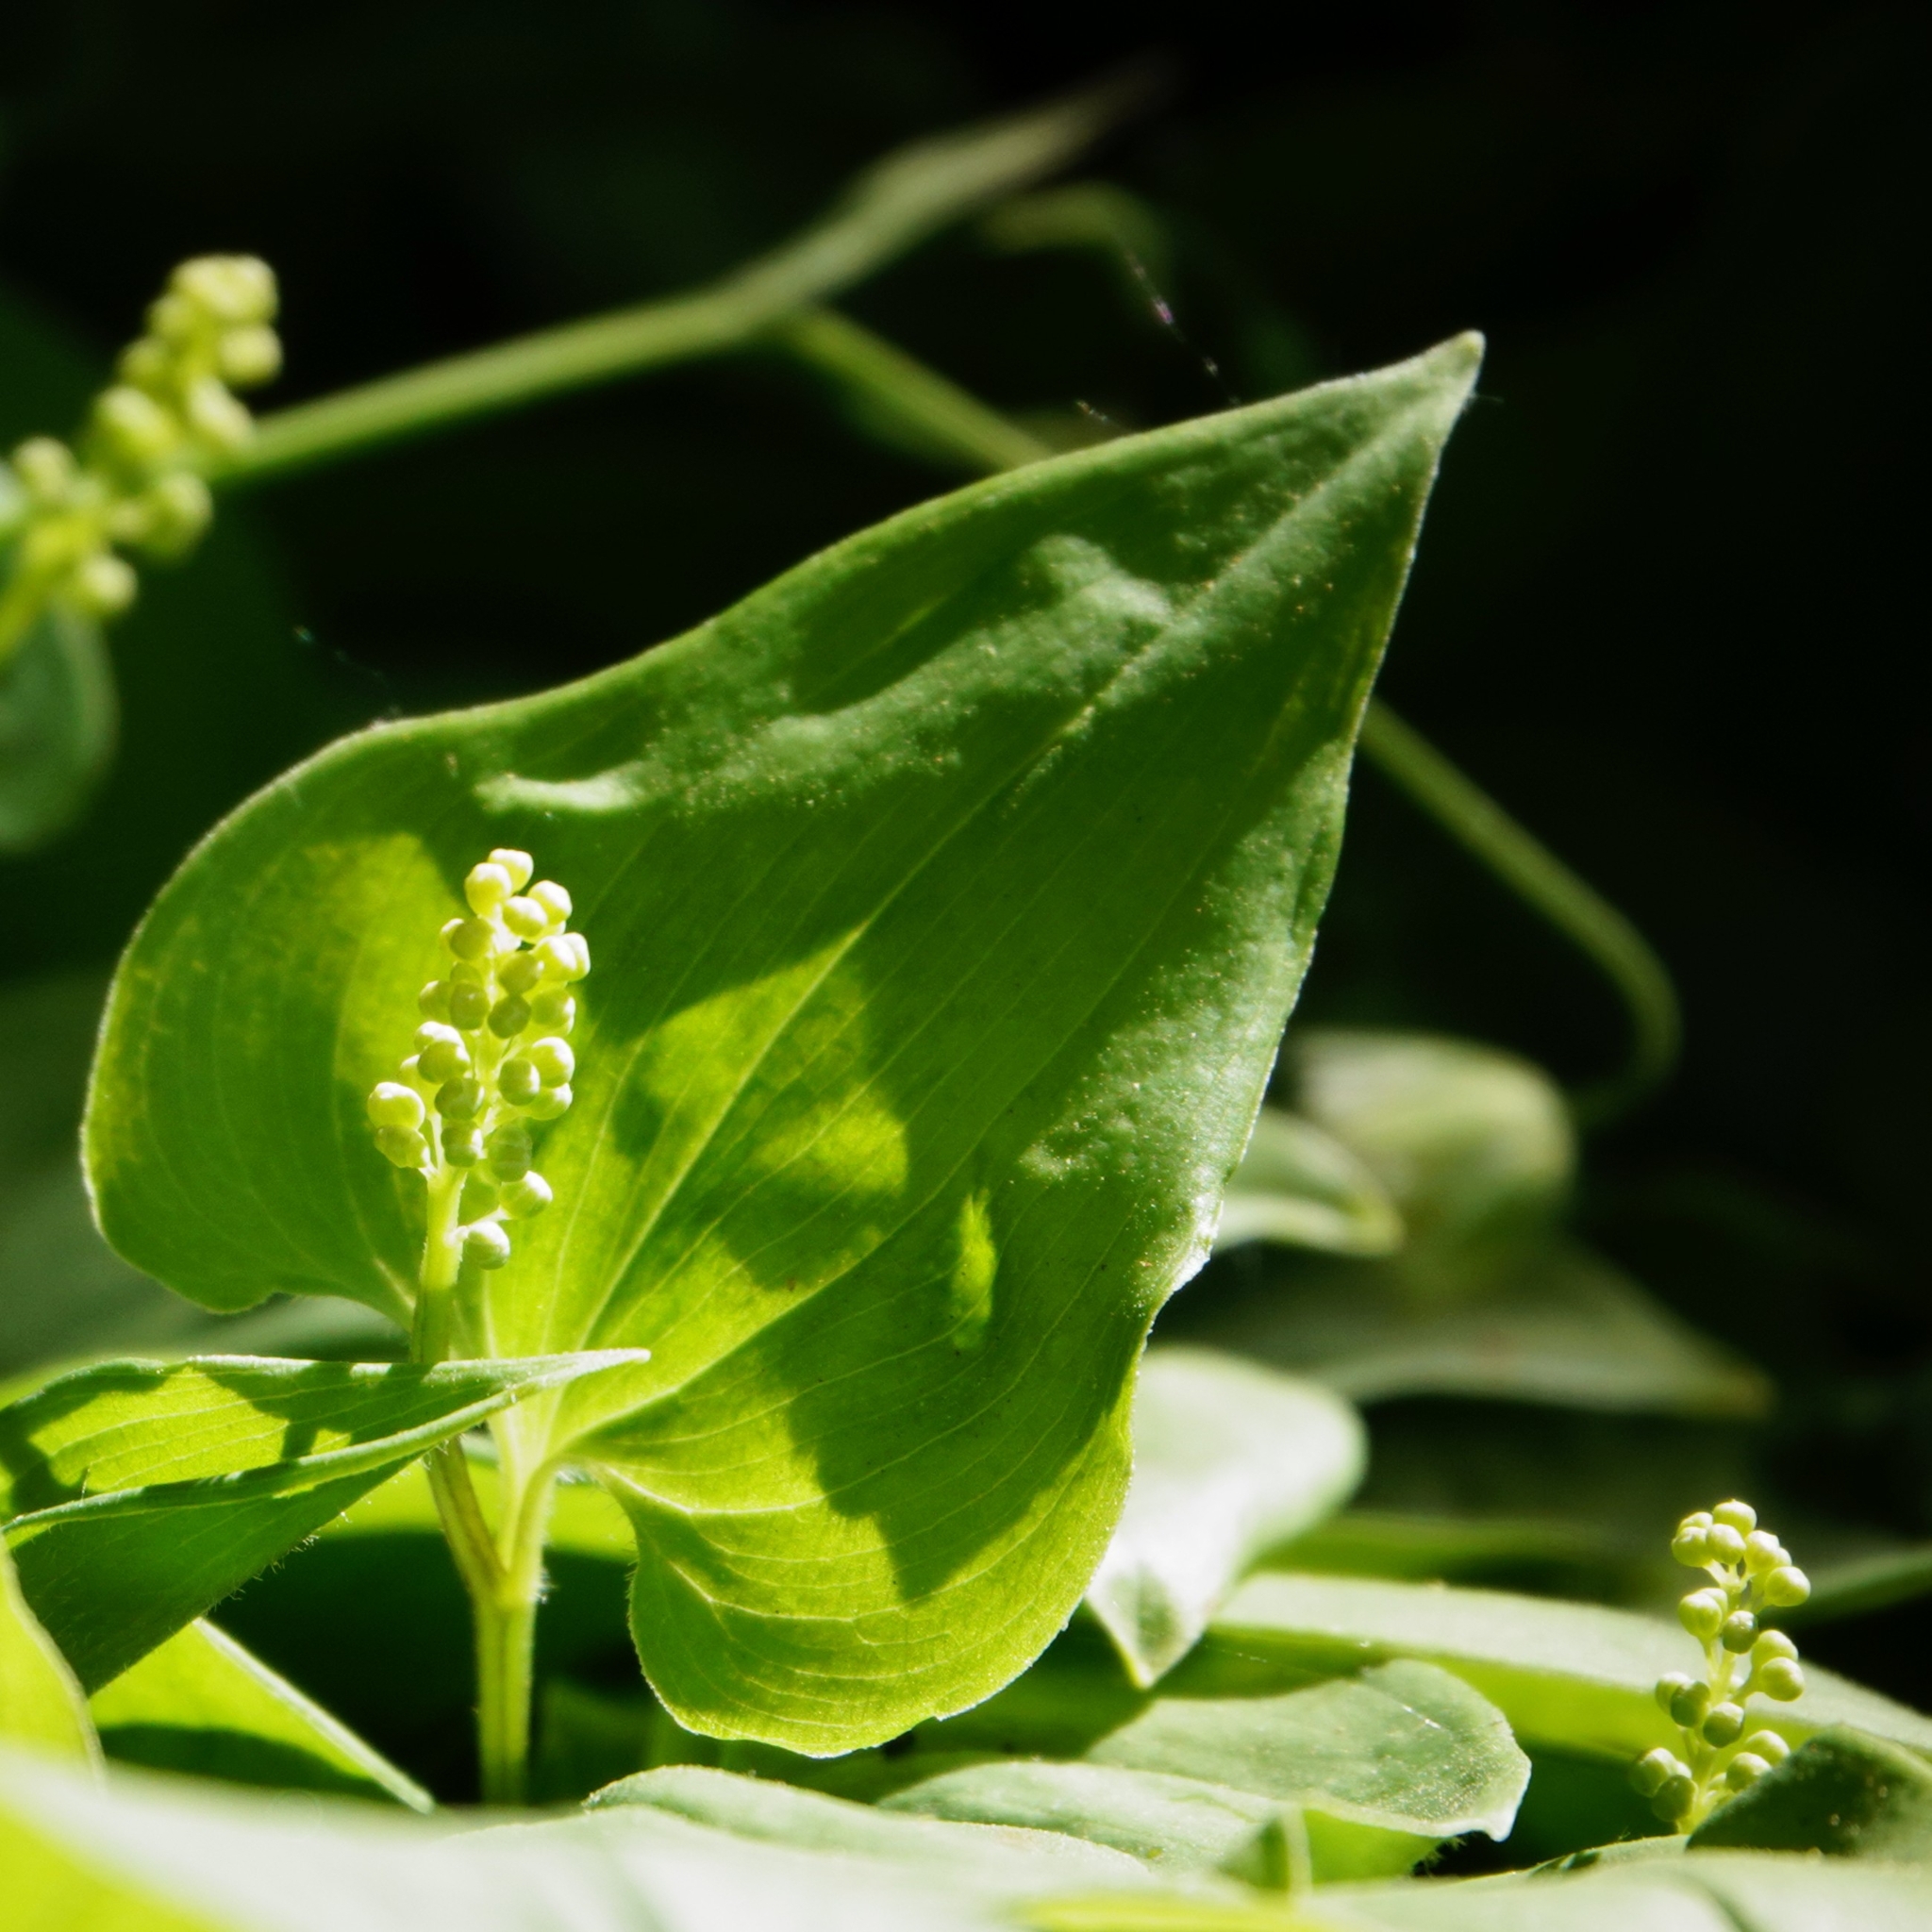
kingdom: Plantae
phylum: Tracheophyta
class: Liliopsida
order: Asparagales
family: Asparagaceae
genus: Maianthemum
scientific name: Maianthemum bifolium
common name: May lily
